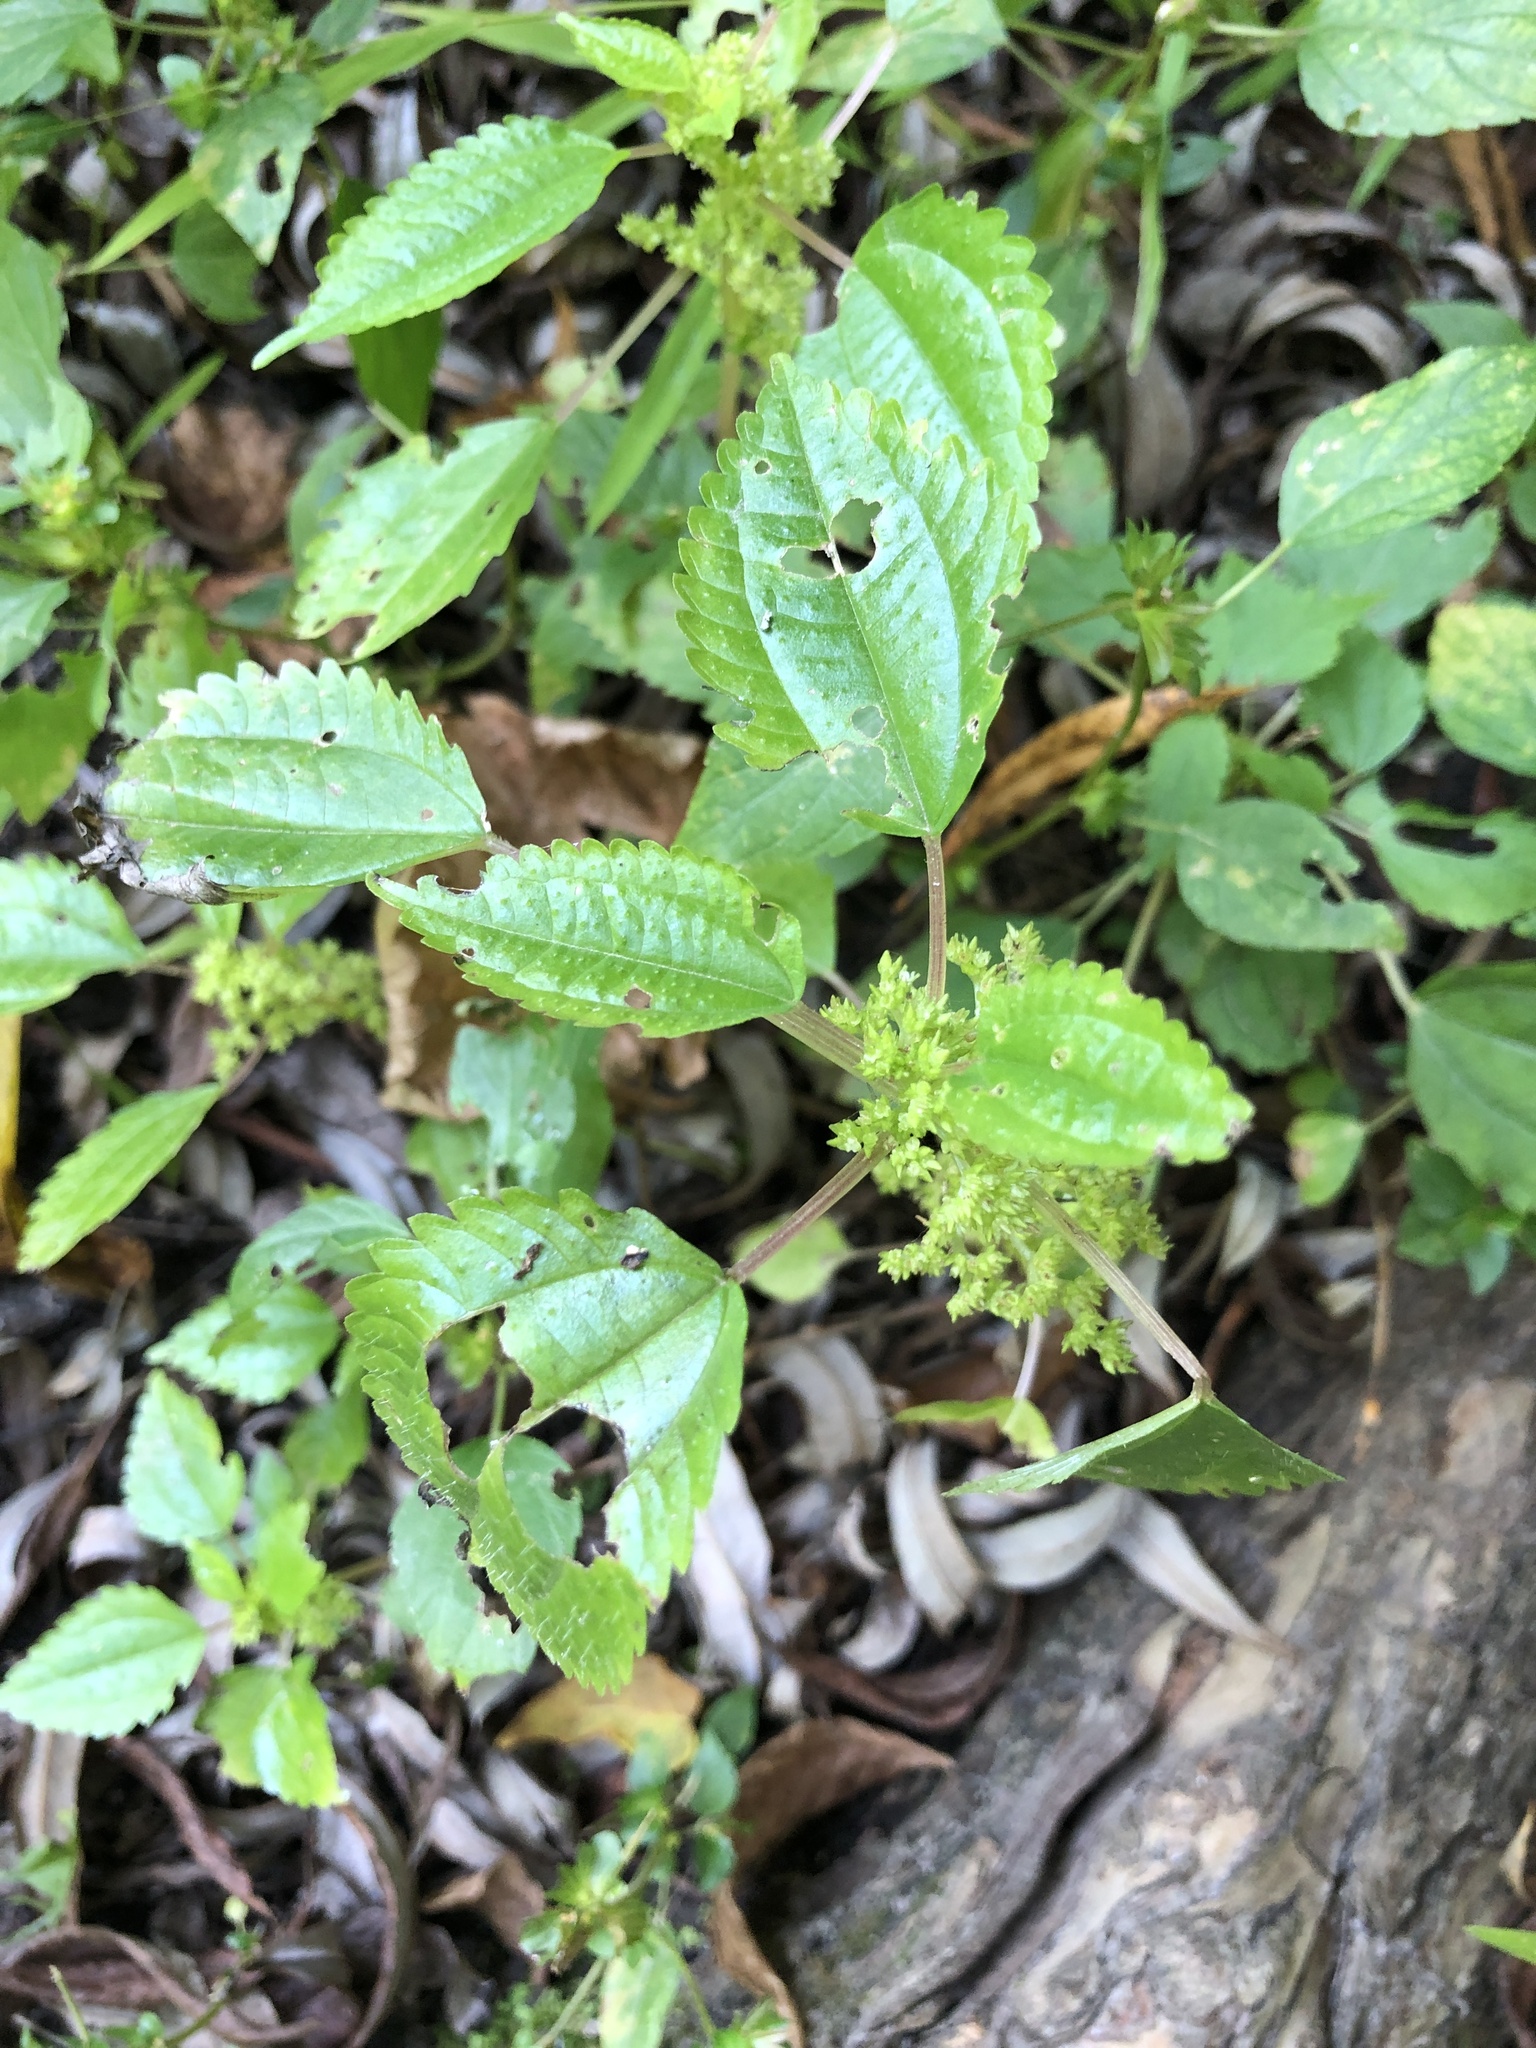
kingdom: Plantae
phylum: Tracheophyta
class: Magnoliopsida
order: Rosales
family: Urticaceae
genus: Pilea
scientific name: Pilea pumila
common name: Clearweed
